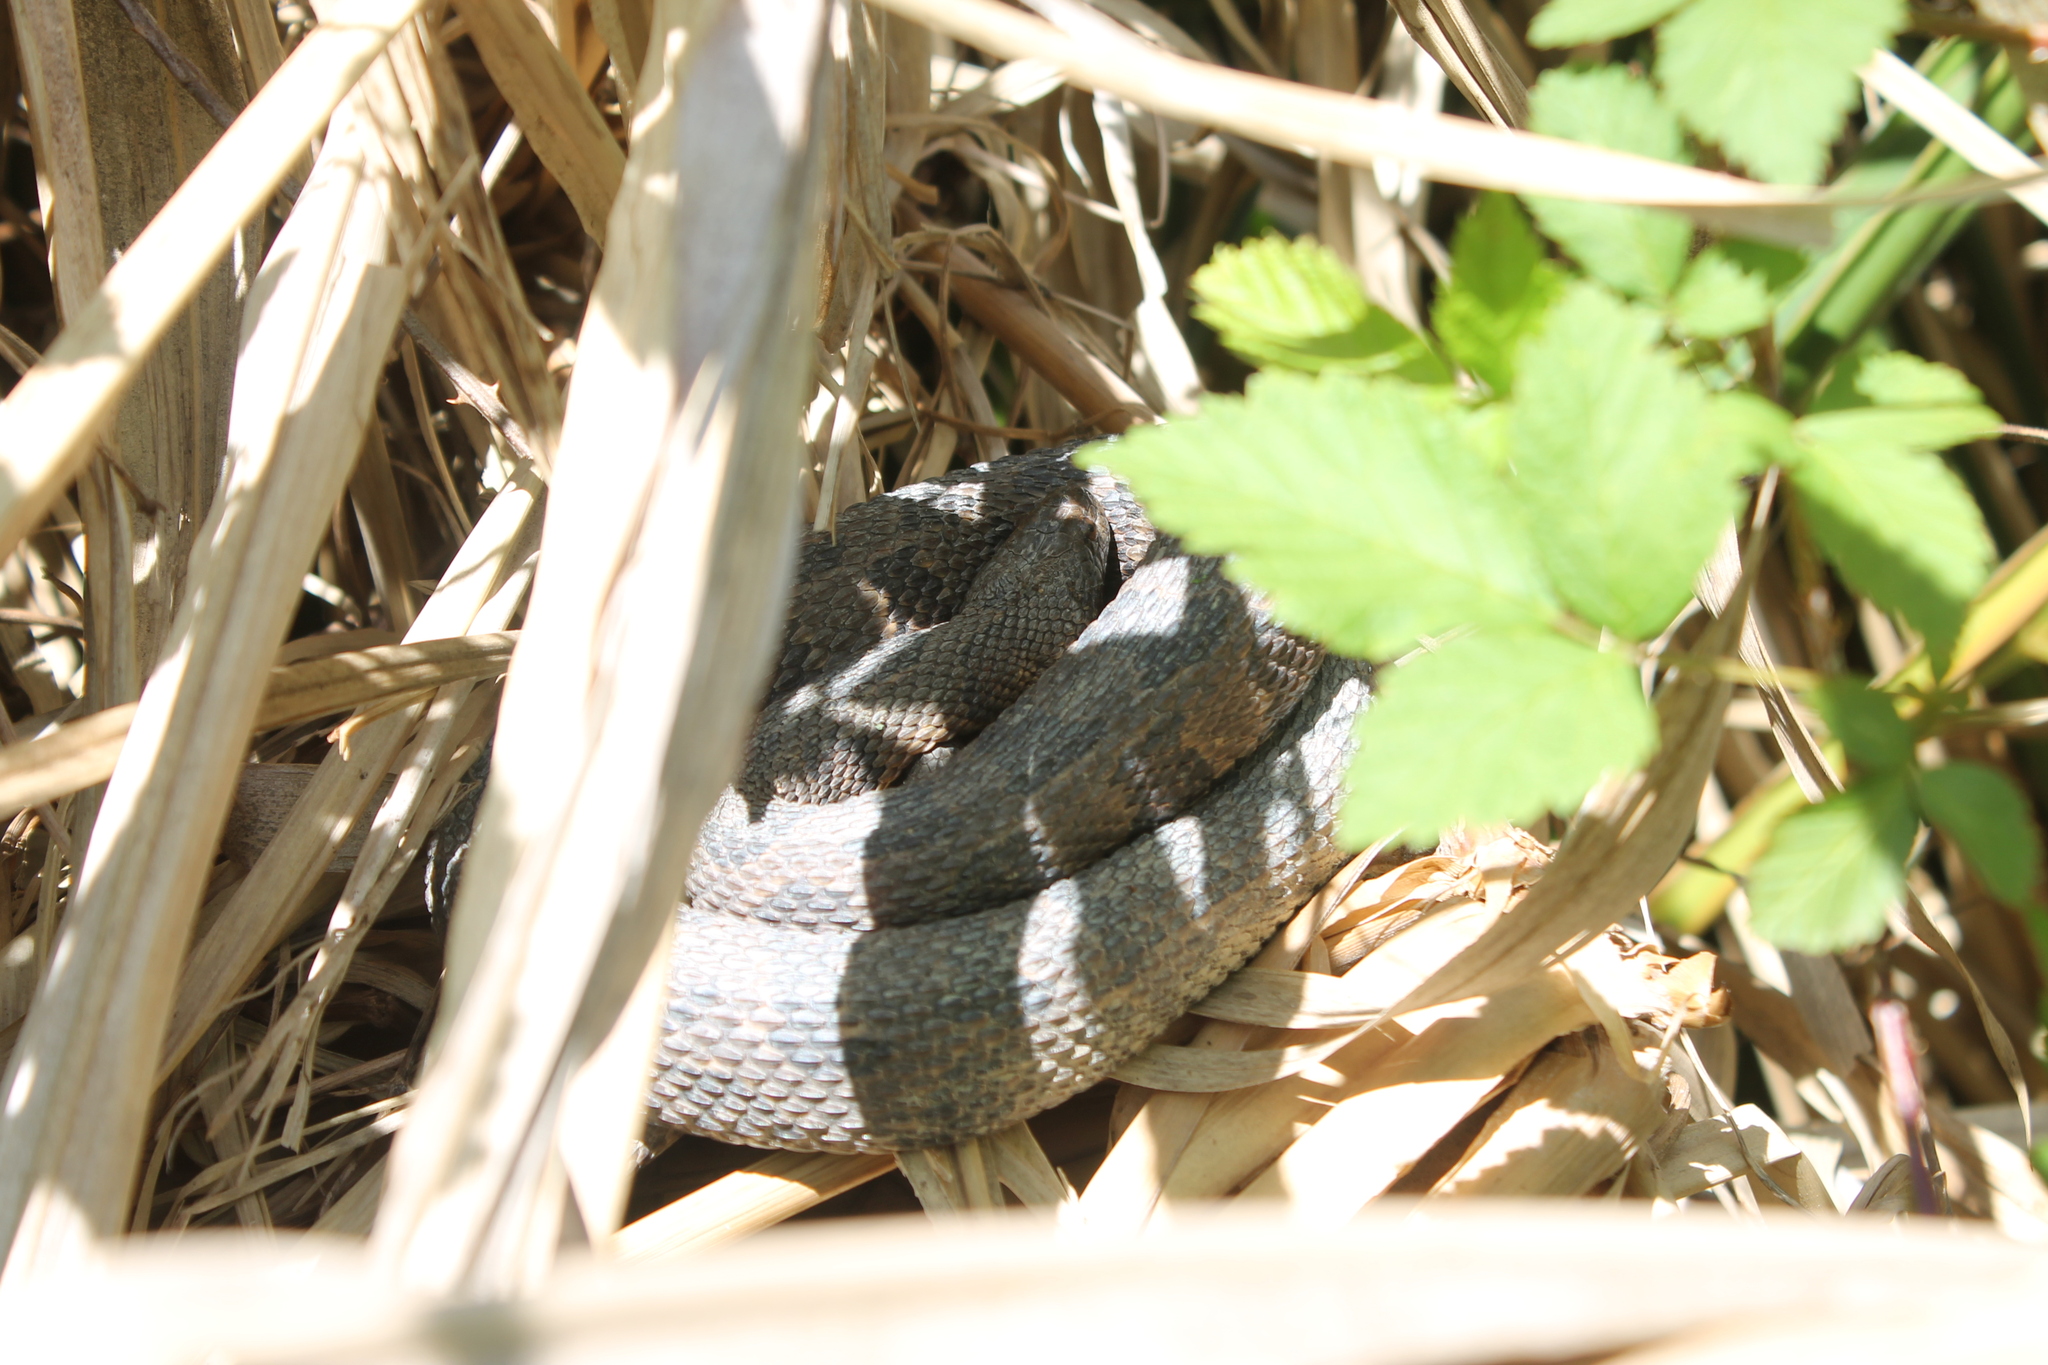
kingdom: Animalia
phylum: Chordata
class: Squamata
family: Colubridae
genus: Nerodia
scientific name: Nerodia taxispilota
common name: Brown water snake
